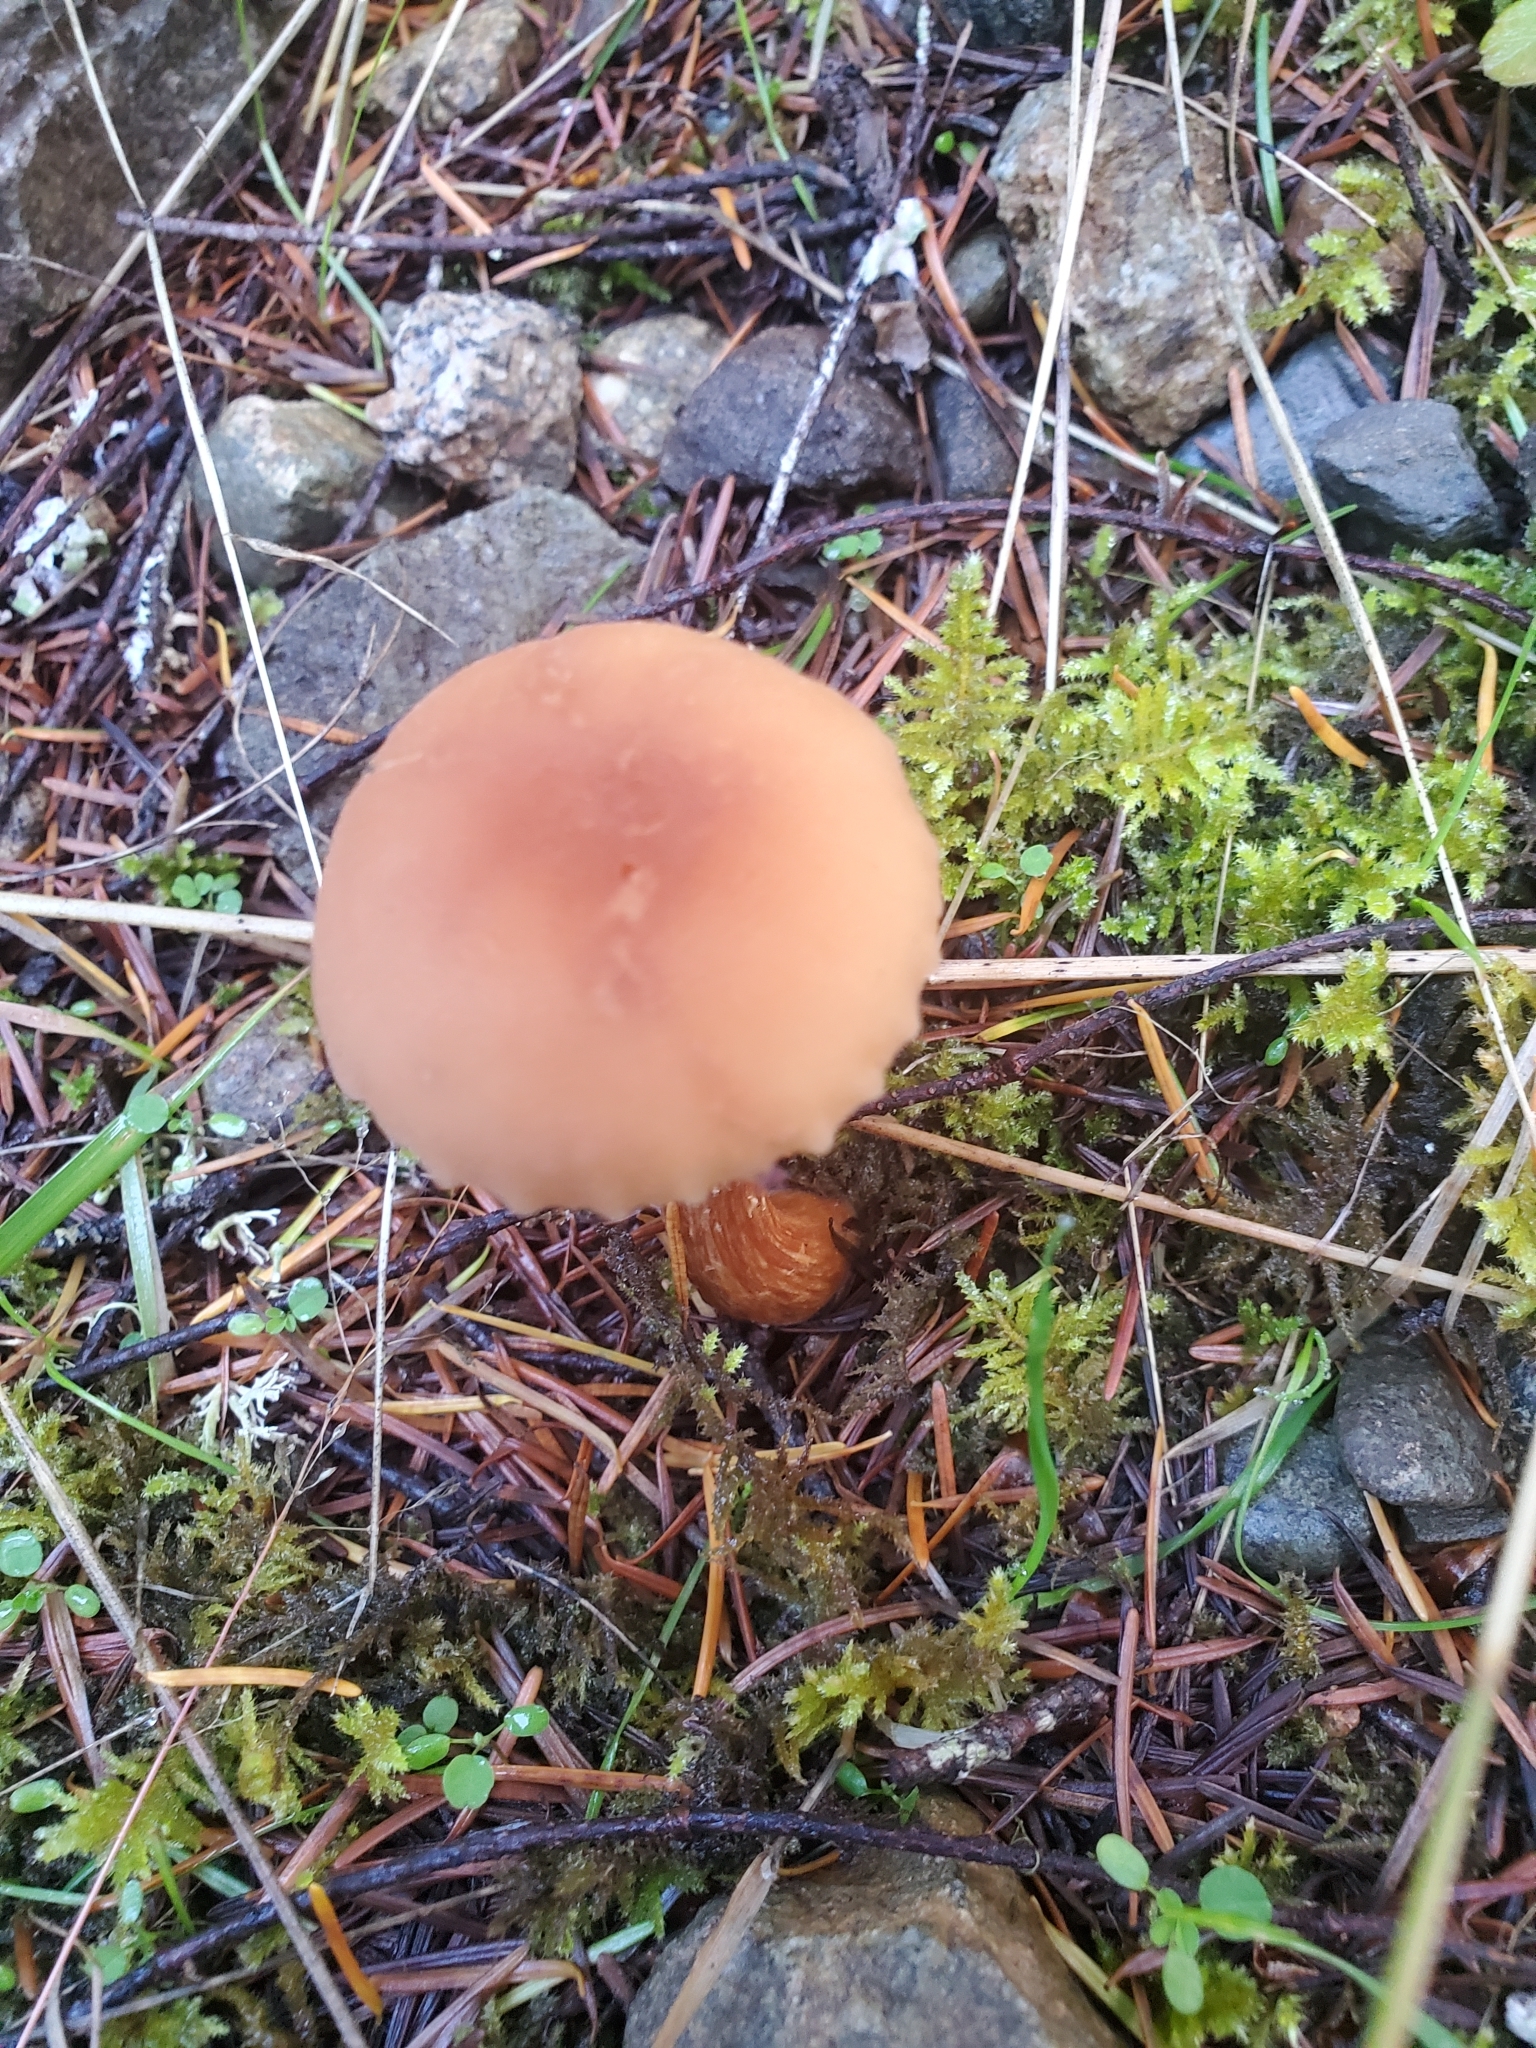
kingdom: Fungi
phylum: Basidiomycota
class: Agaricomycetes
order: Agaricales
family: Hydnangiaceae
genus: Laccaria
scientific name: Laccaria laccata
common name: Deceiver
